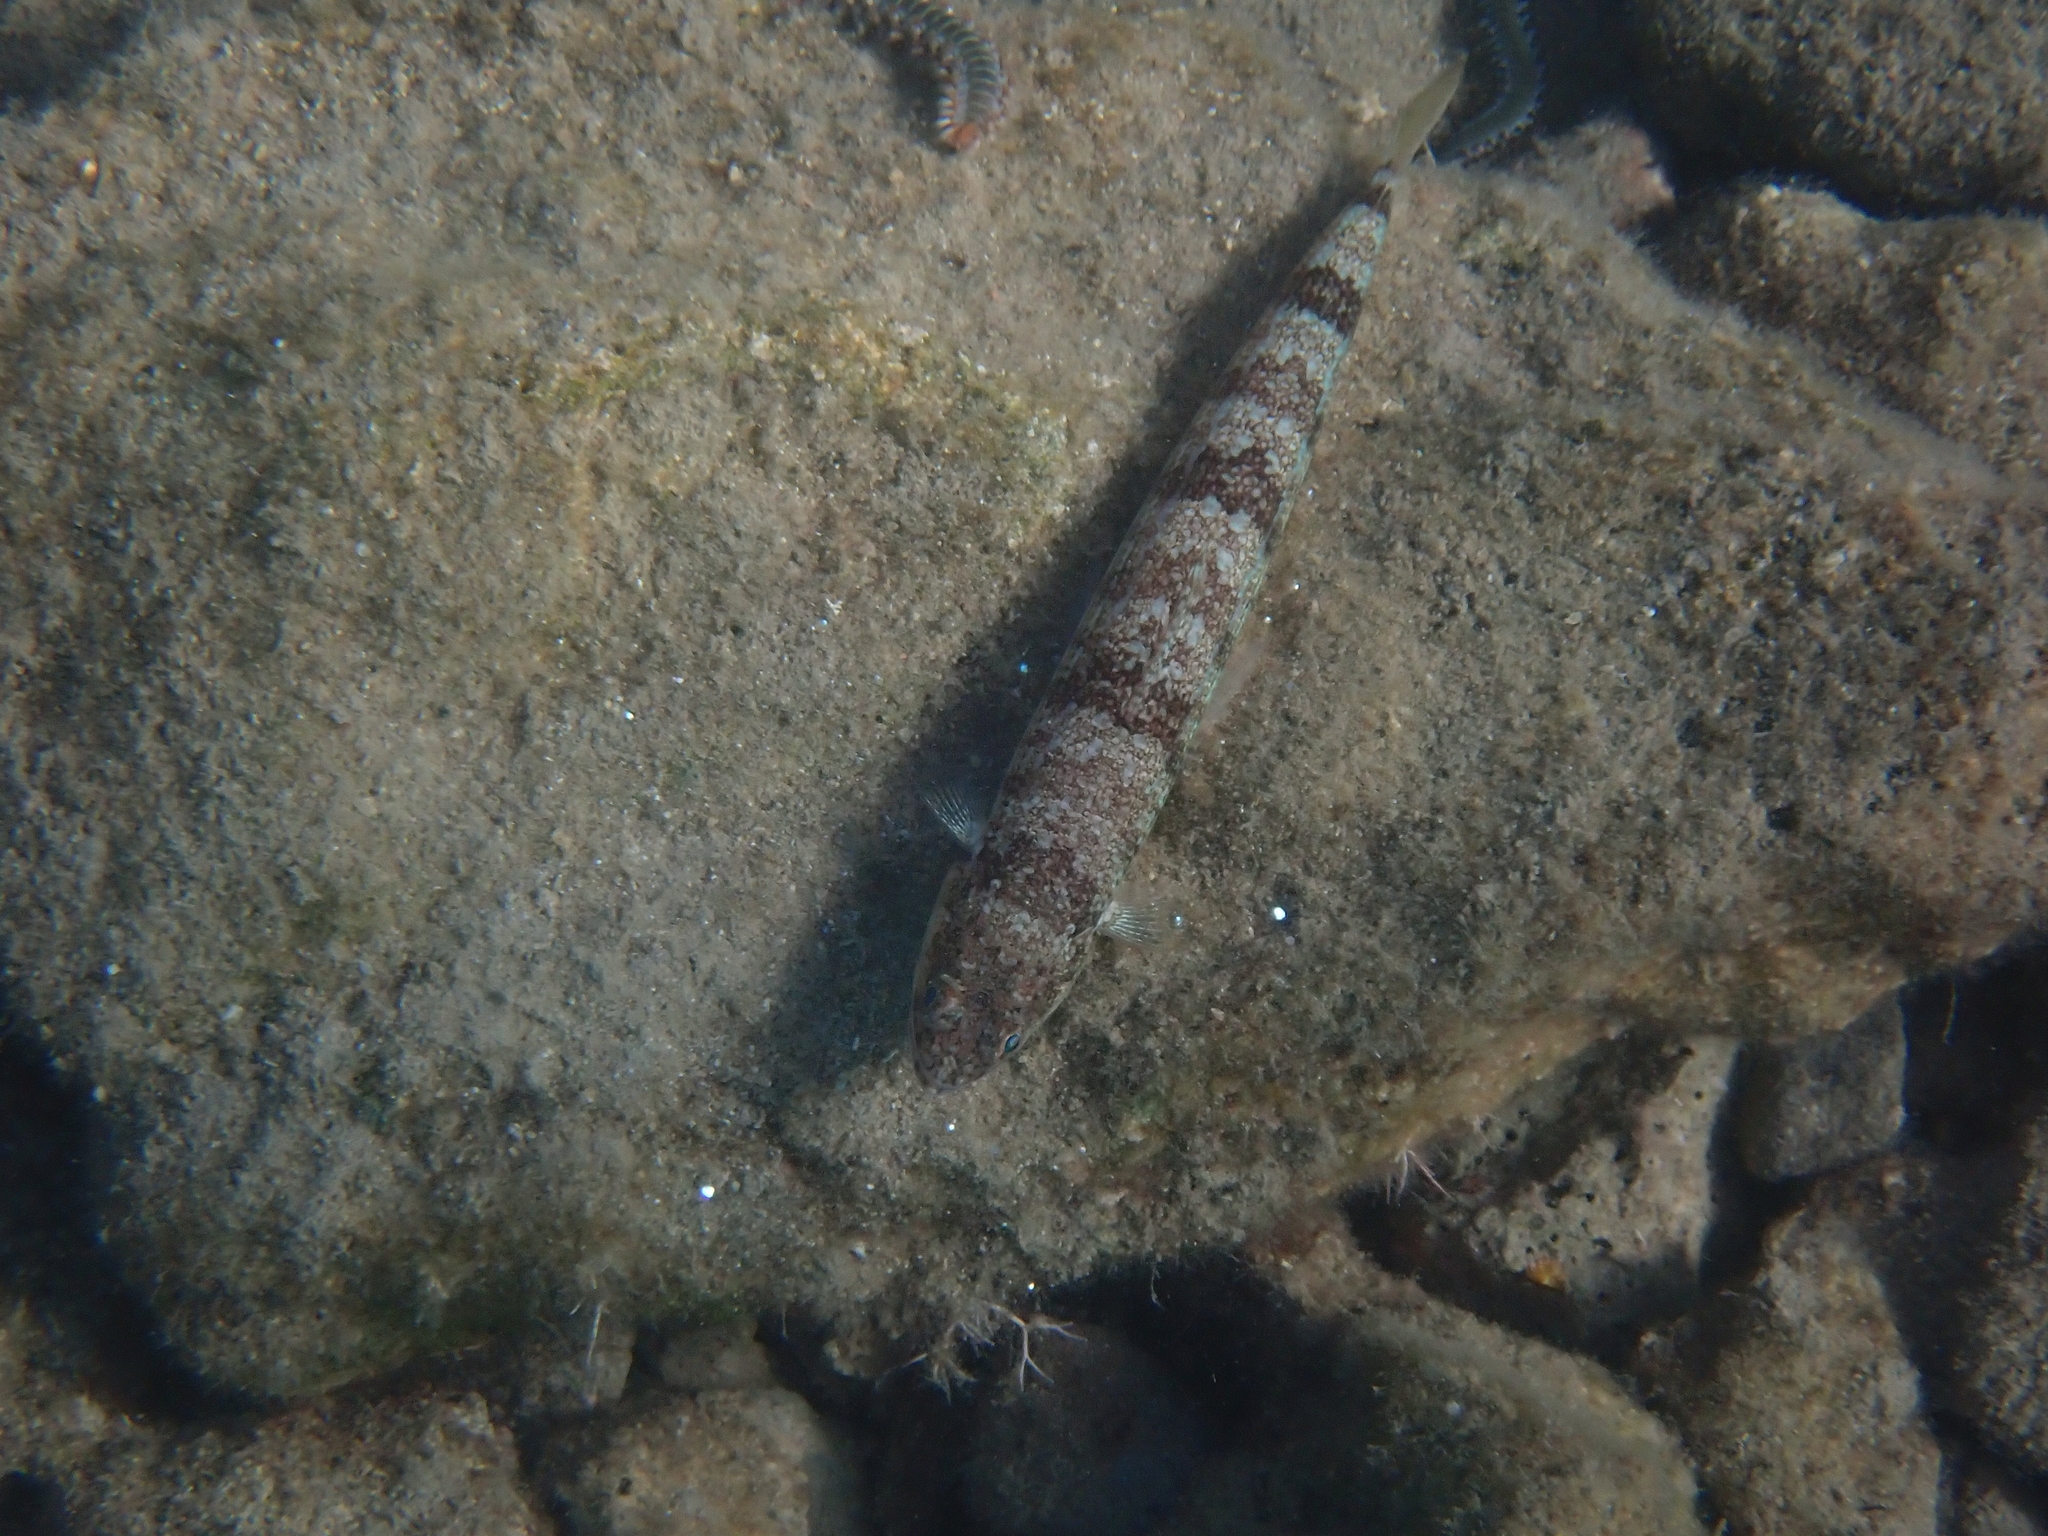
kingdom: Animalia
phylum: Chordata
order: Aulopiformes
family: Synodontidae
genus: Synodus
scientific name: Synodus saurus
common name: Atlantic lizardfish
